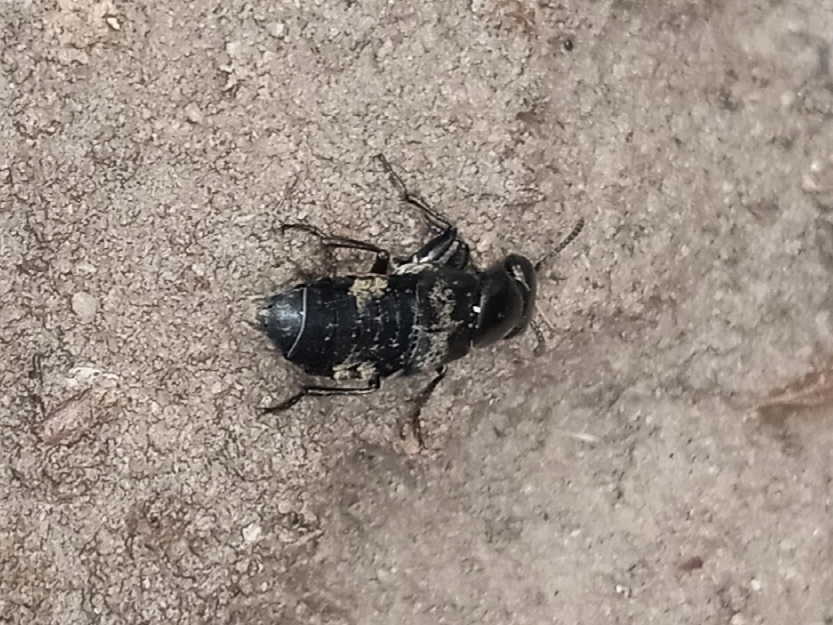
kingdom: Animalia
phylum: Arthropoda
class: Insecta
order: Coleoptera
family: Staphylinidae
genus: Creophilus
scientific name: Creophilus maxillosus
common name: Hairy rove beetle
